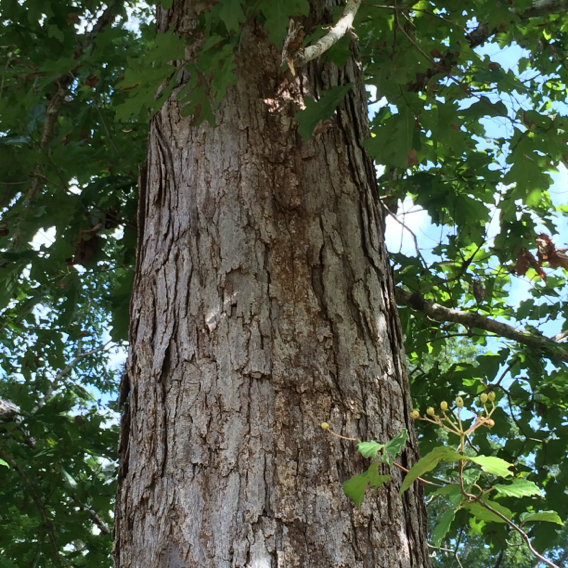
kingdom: Plantae
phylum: Tracheophyta
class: Magnoliopsida
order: Fagales
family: Fagaceae
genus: Quercus
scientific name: Quercus alba
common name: White oak
